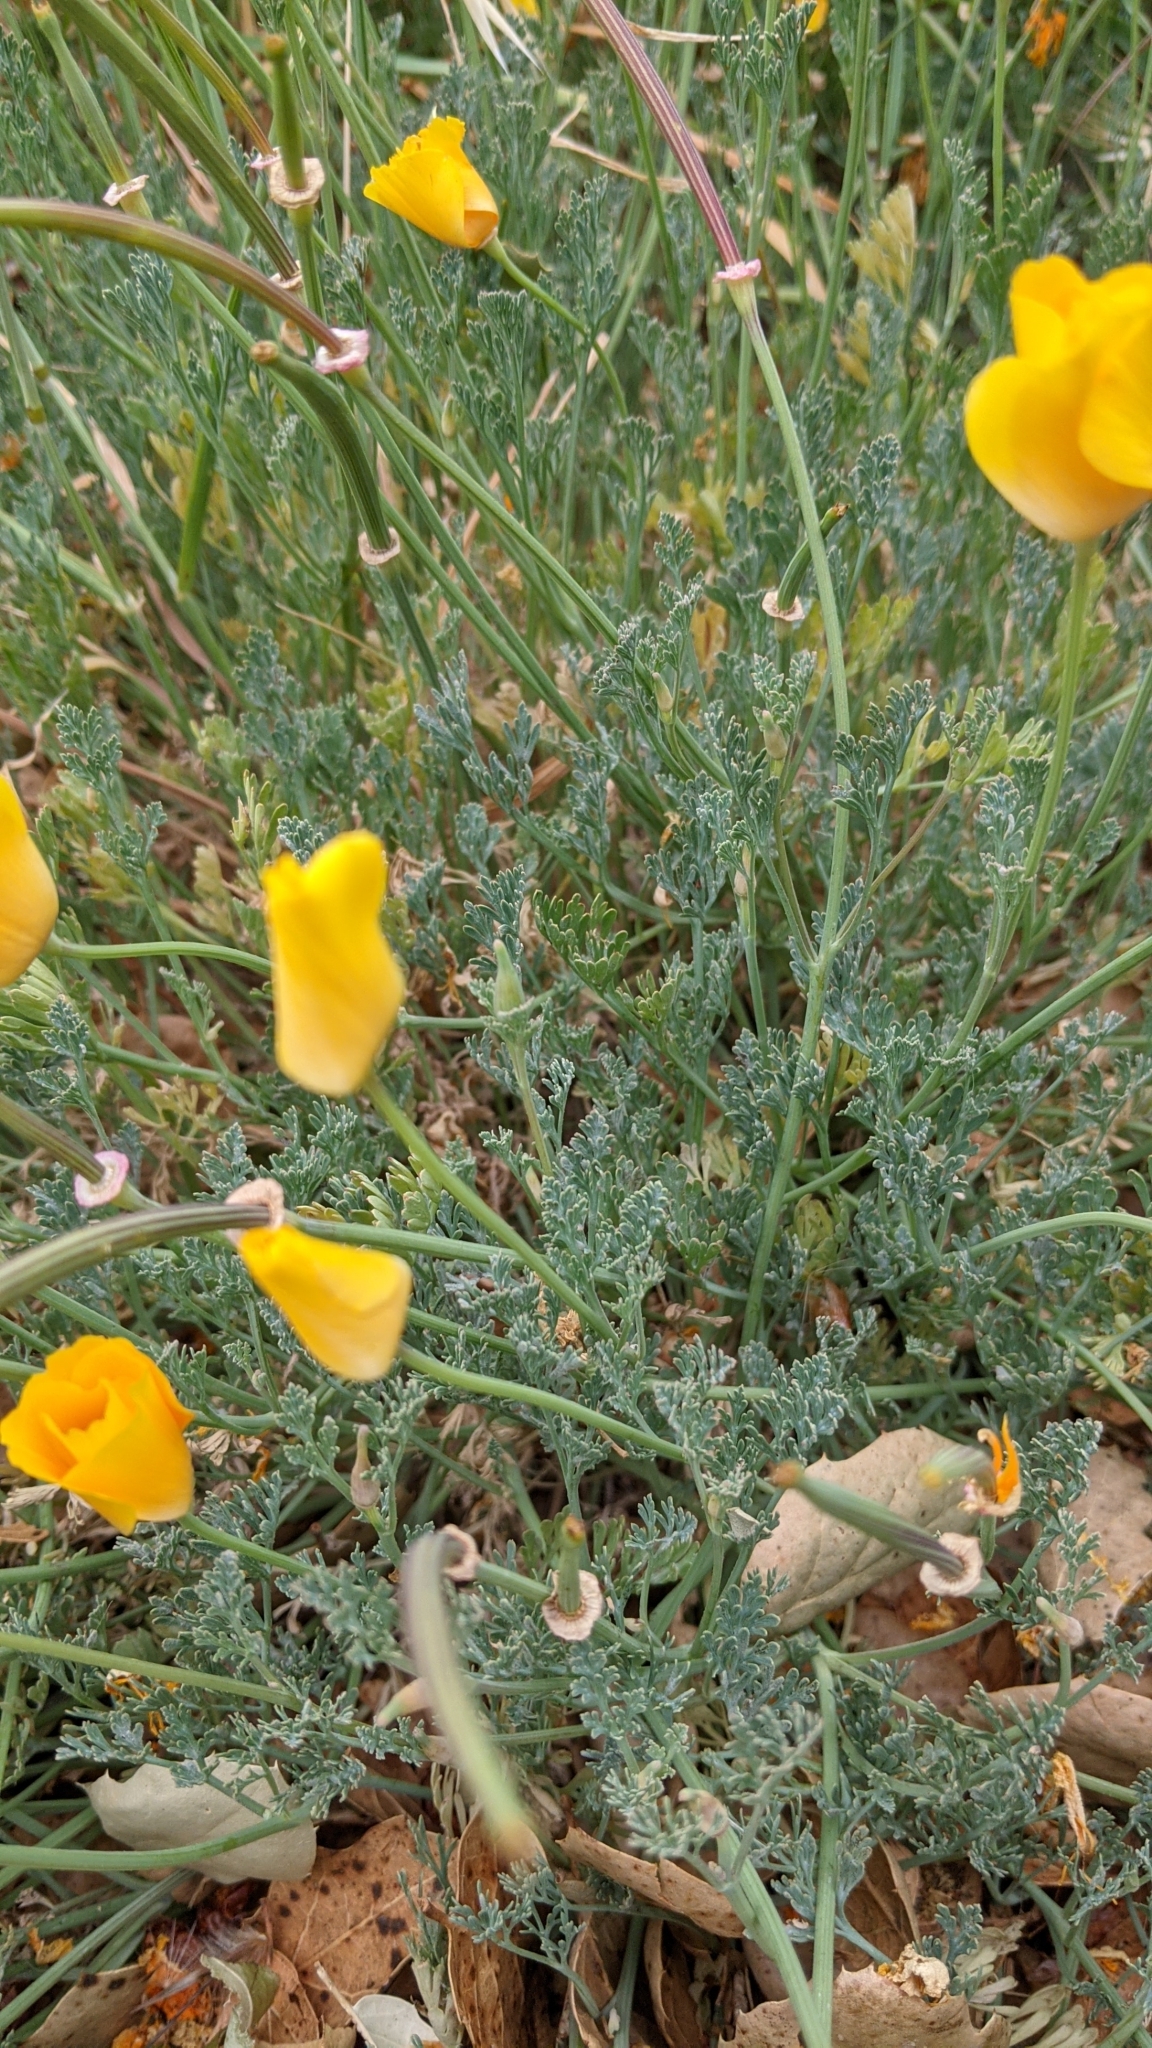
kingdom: Plantae
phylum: Tracheophyta
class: Magnoliopsida
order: Ranunculales
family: Papaveraceae
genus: Eschscholzia
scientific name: Eschscholzia californica
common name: California poppy
